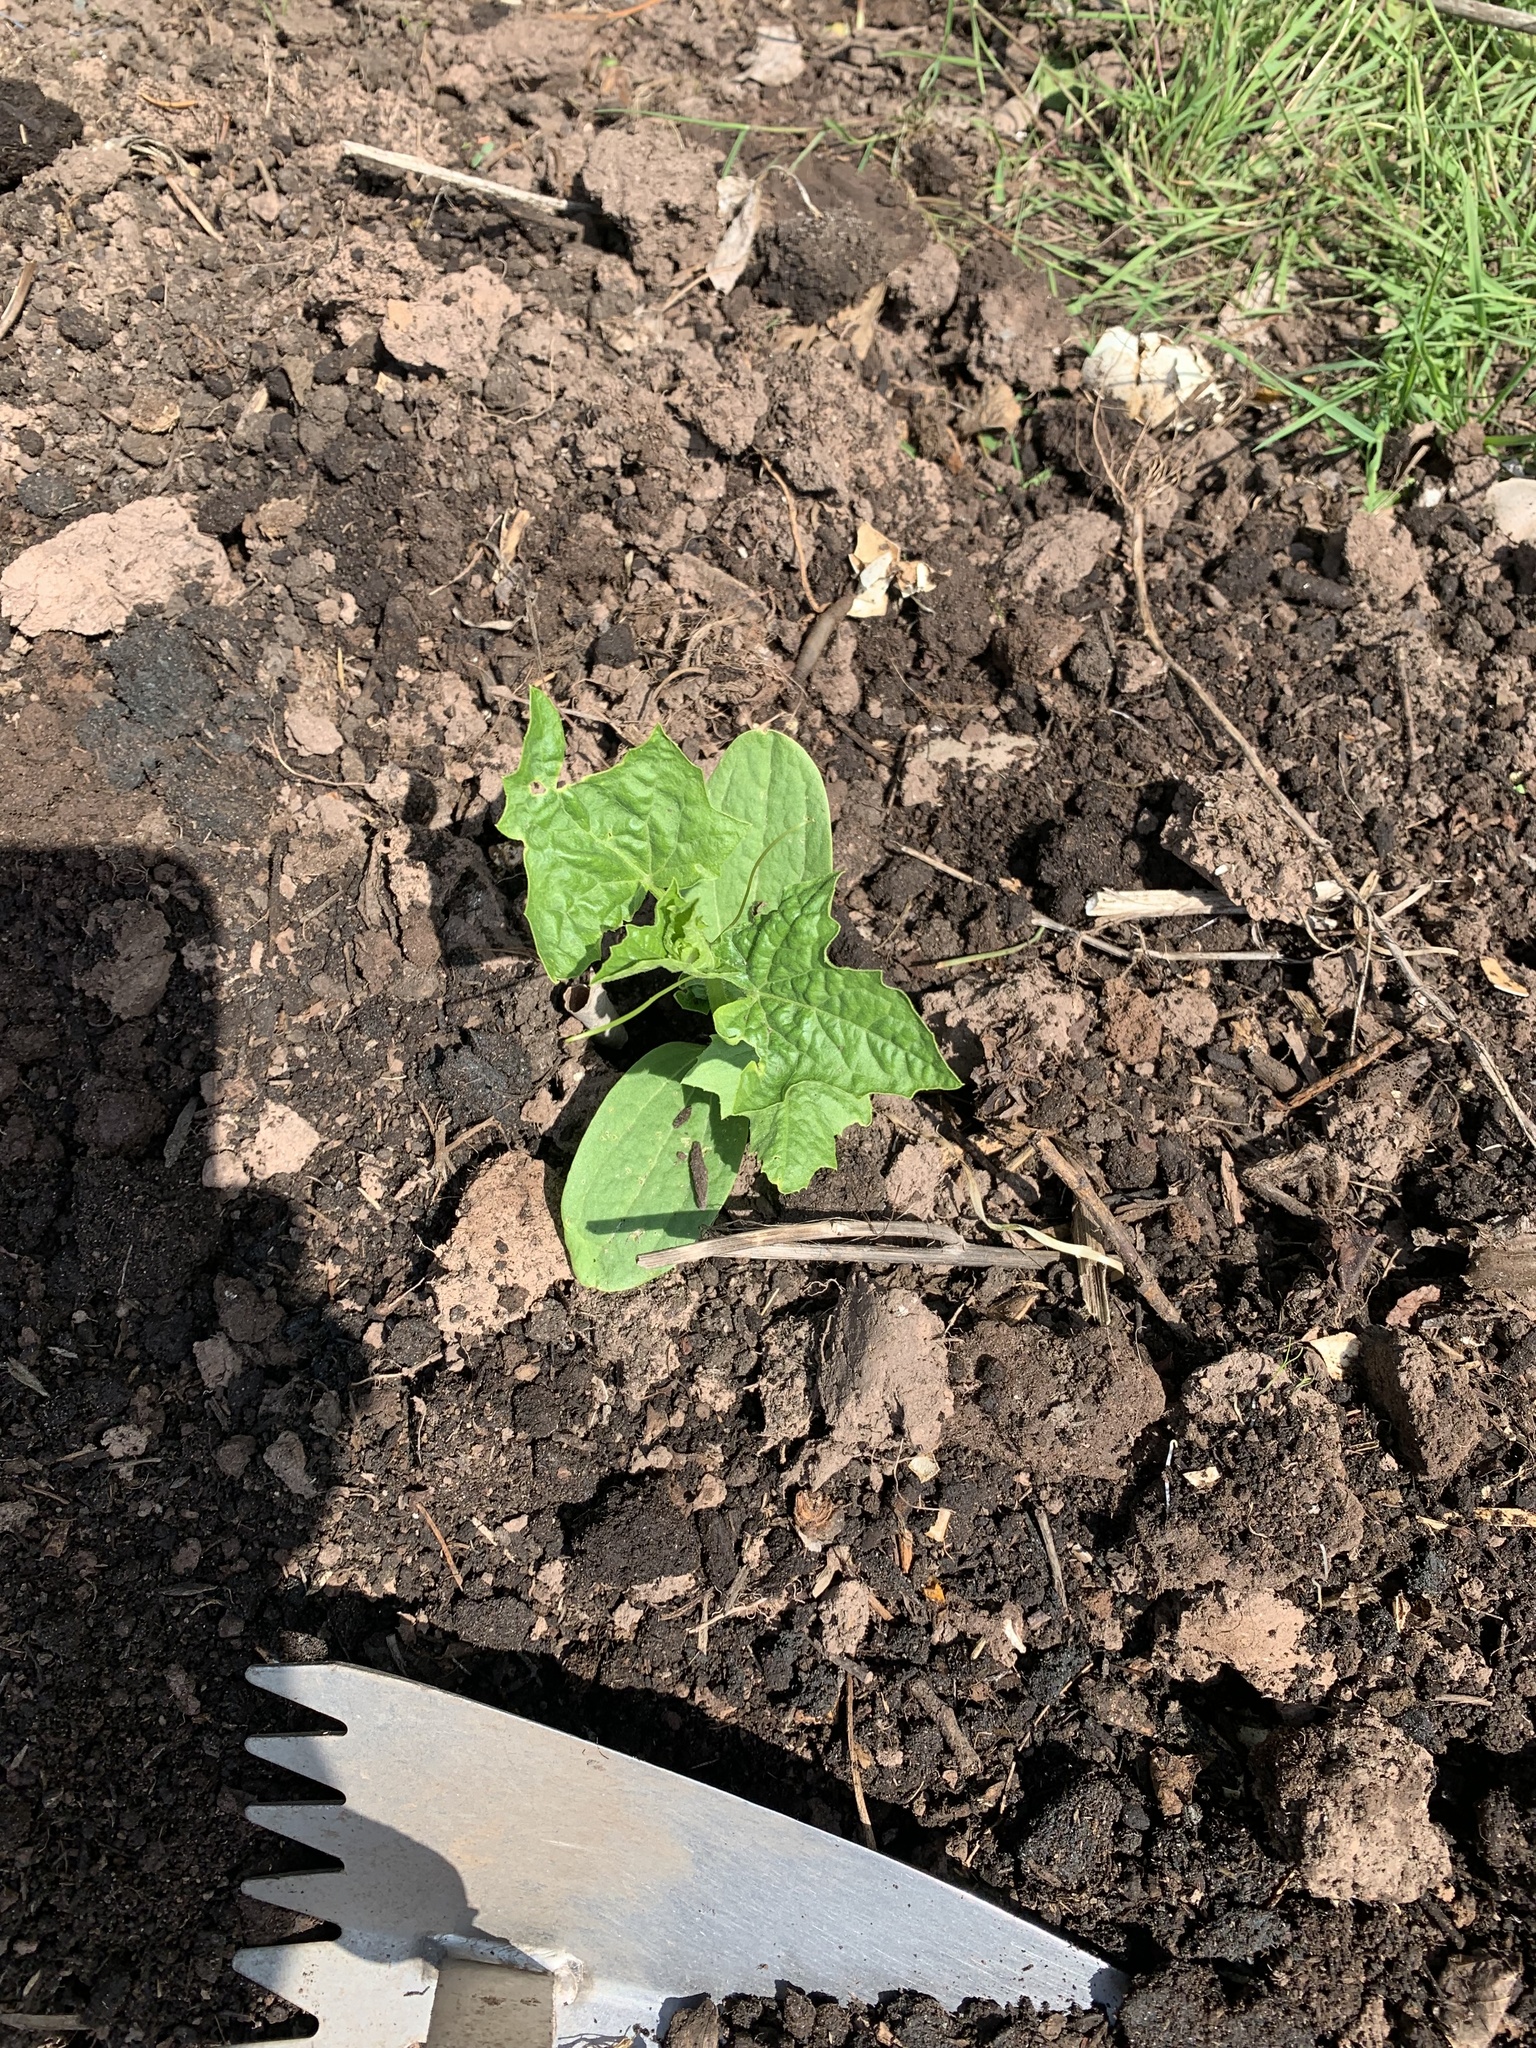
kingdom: Plantae
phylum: Tracheophyta
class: Magnoliopsida
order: Cucurbitales
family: Cucurbitaceae
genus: Echinocystis
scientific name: Echinocystis lobata
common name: Wild cucumber
